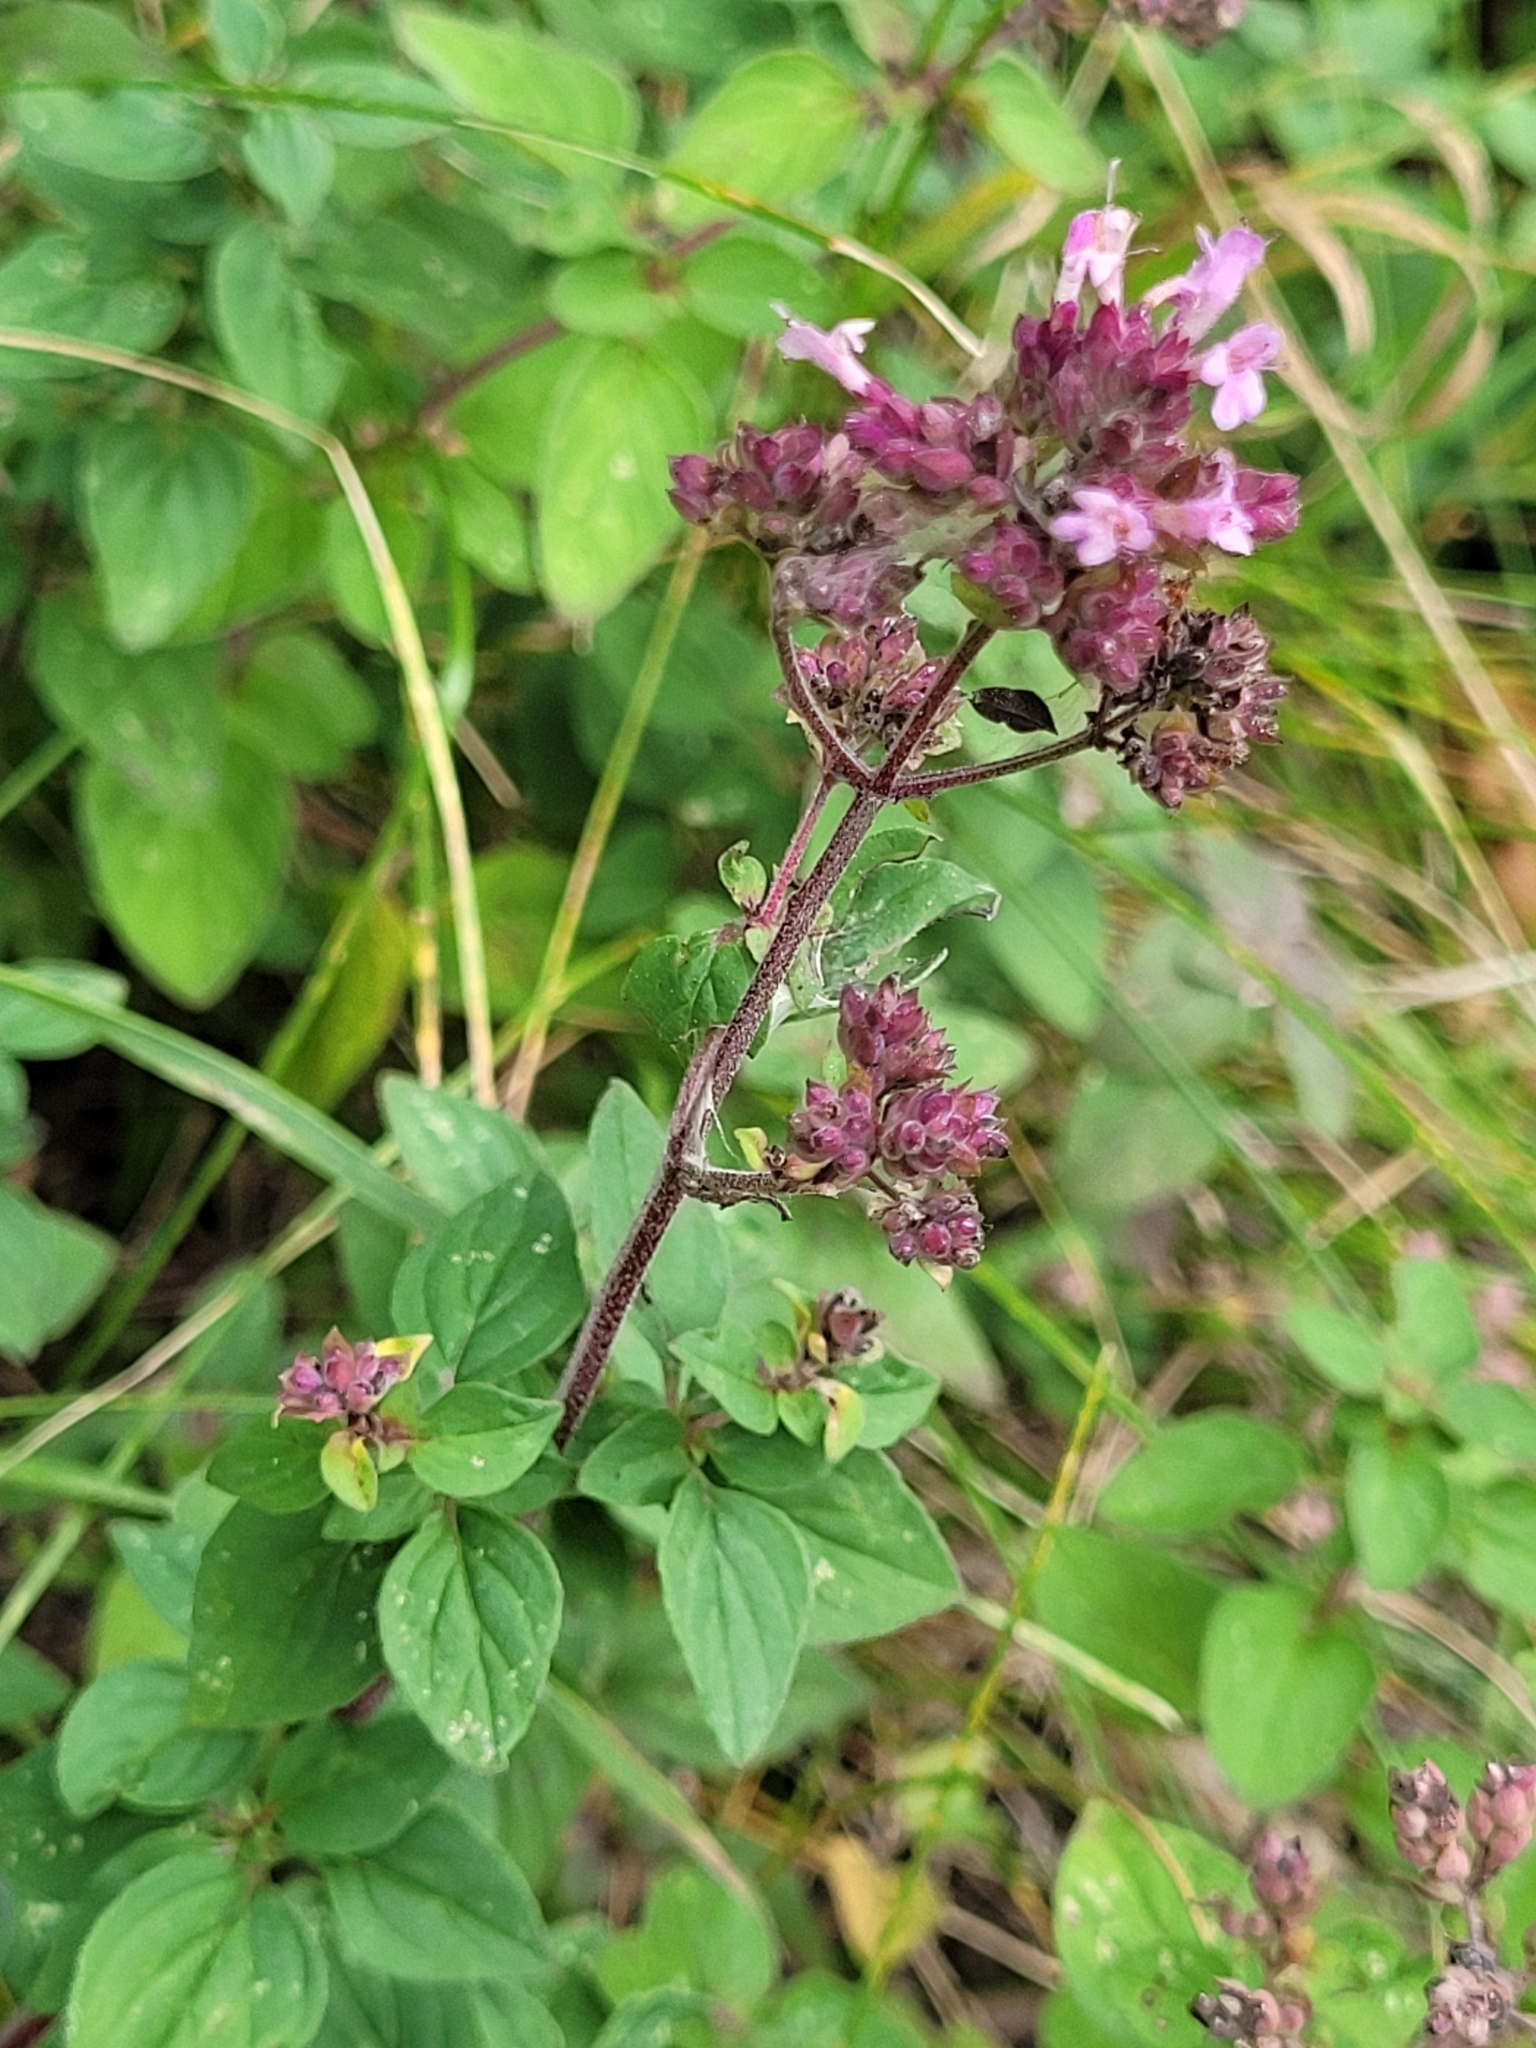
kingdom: Plantae
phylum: Tracheophyta
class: Magnoliopsida
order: Lamiales
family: Lamiaceae
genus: Origanum
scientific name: Origanum vulgare
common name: Wild marjoram
